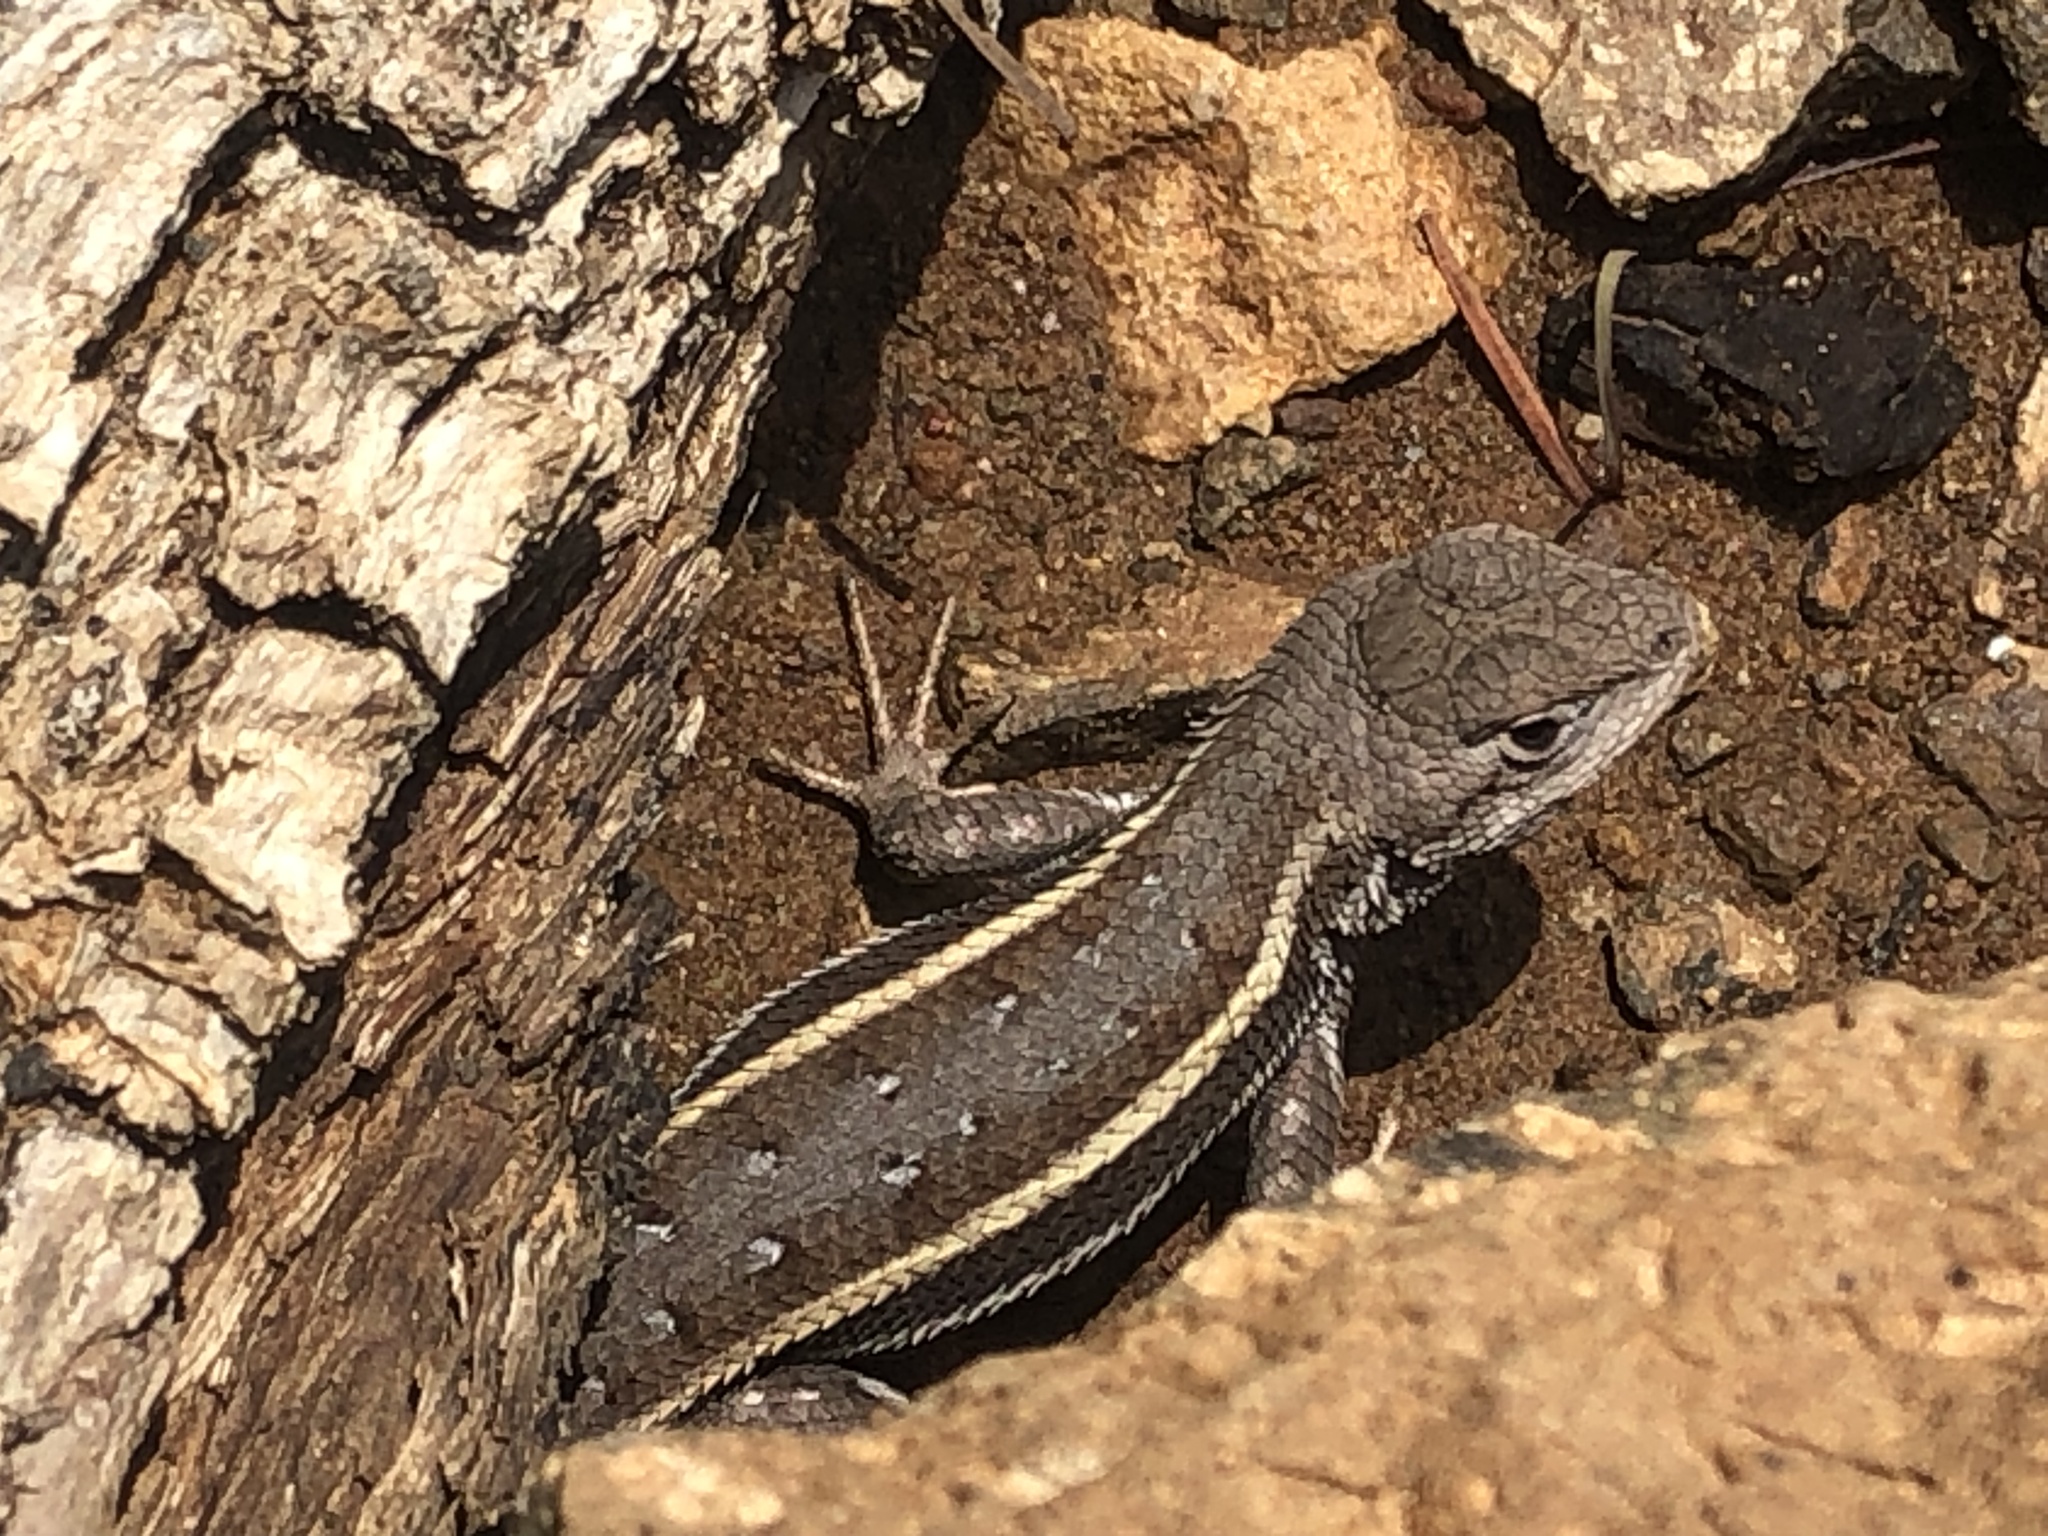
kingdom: Animalia
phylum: Chordata
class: Squamata
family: Phrynosomatidae
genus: Sceloporus
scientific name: Sceloporus virgatus
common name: Striped plateau lizard
